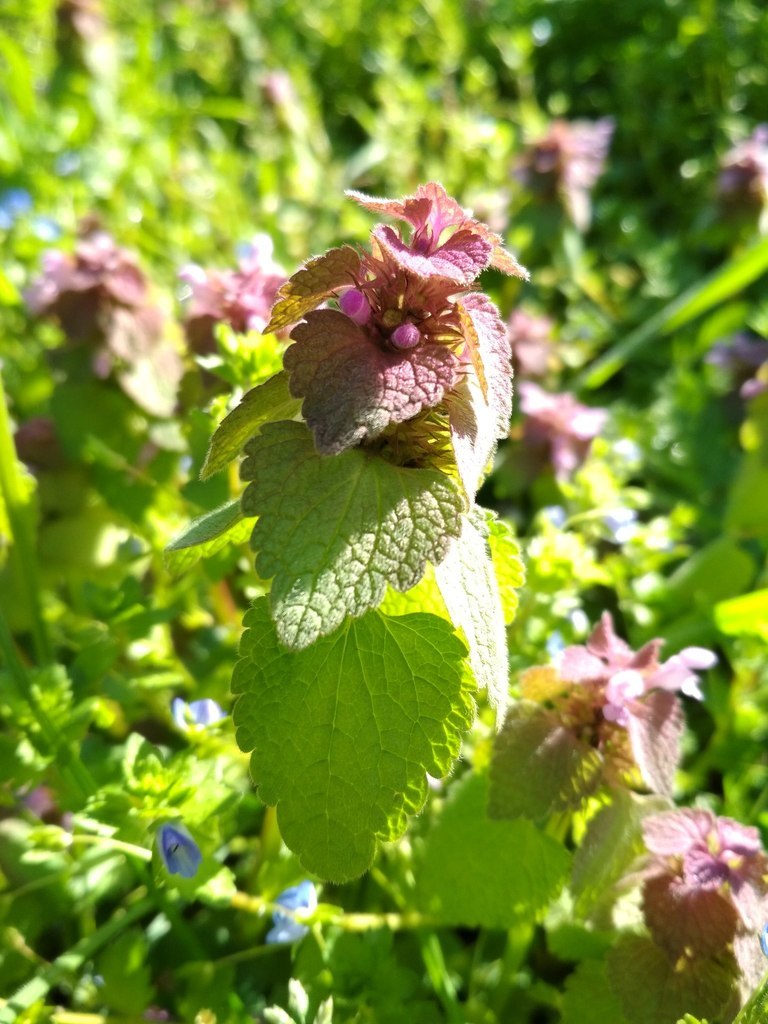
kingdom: Plantae
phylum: Tracheophyta
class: Magnoliopsida
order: Lamiales
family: Lamiaceae
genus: Lamium
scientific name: Lamium purpureum
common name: Red dead-nettle
